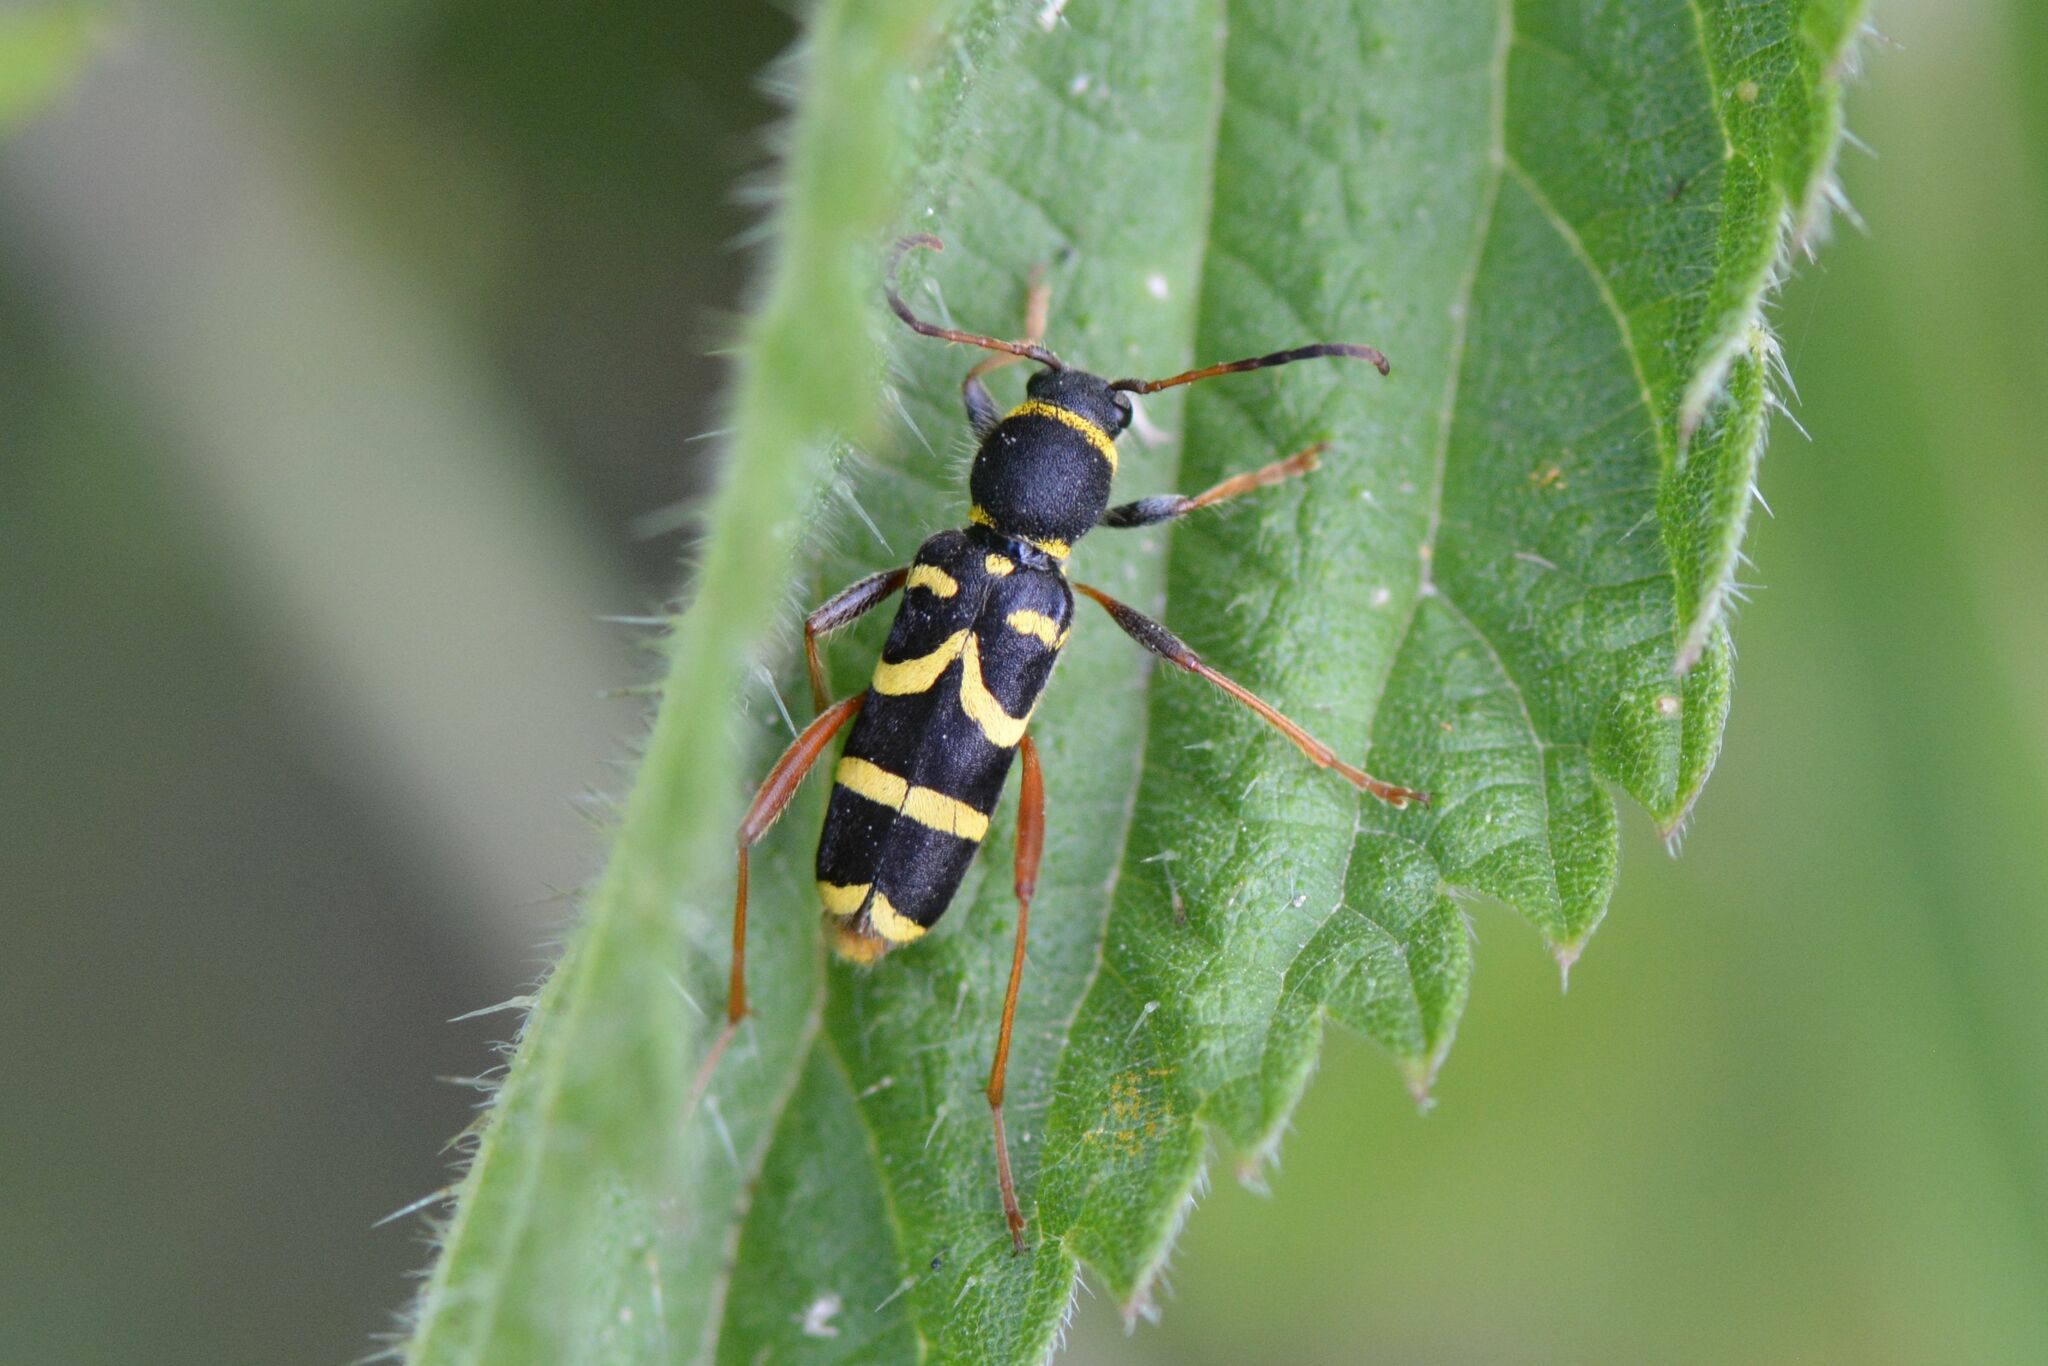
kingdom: Animalia
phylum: Arthropoda
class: Insecta
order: Coleoptera
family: Cerambycidae
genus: Clytus
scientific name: Clytus arietis
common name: Wasp beetle
